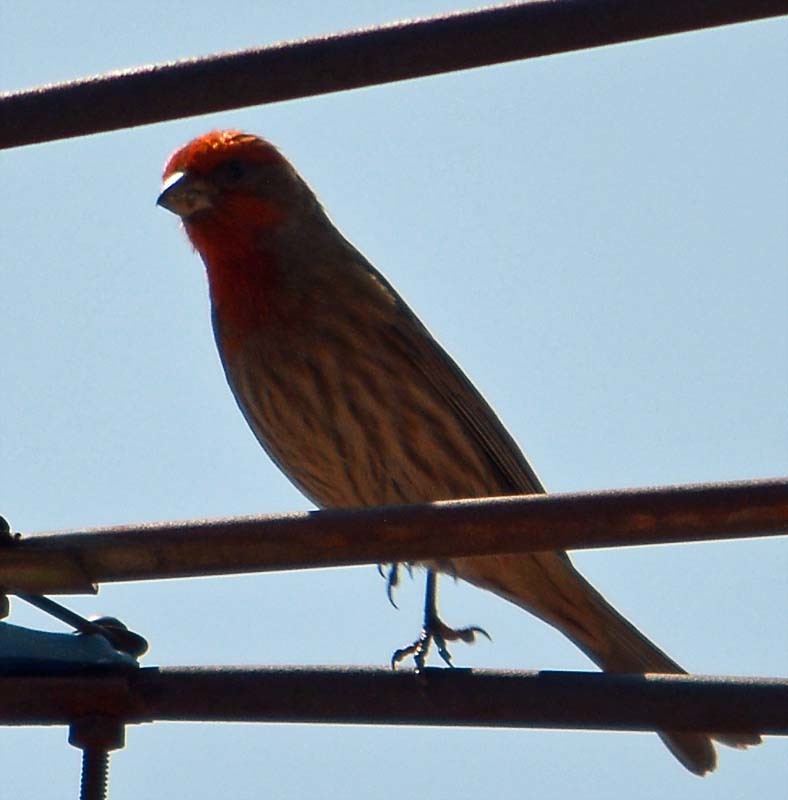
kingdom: Animalia
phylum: Chordata
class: Aves
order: Passeriformes
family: Fringillidae
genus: Haemorhous
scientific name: Haemorhous mexicanus
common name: House finch
